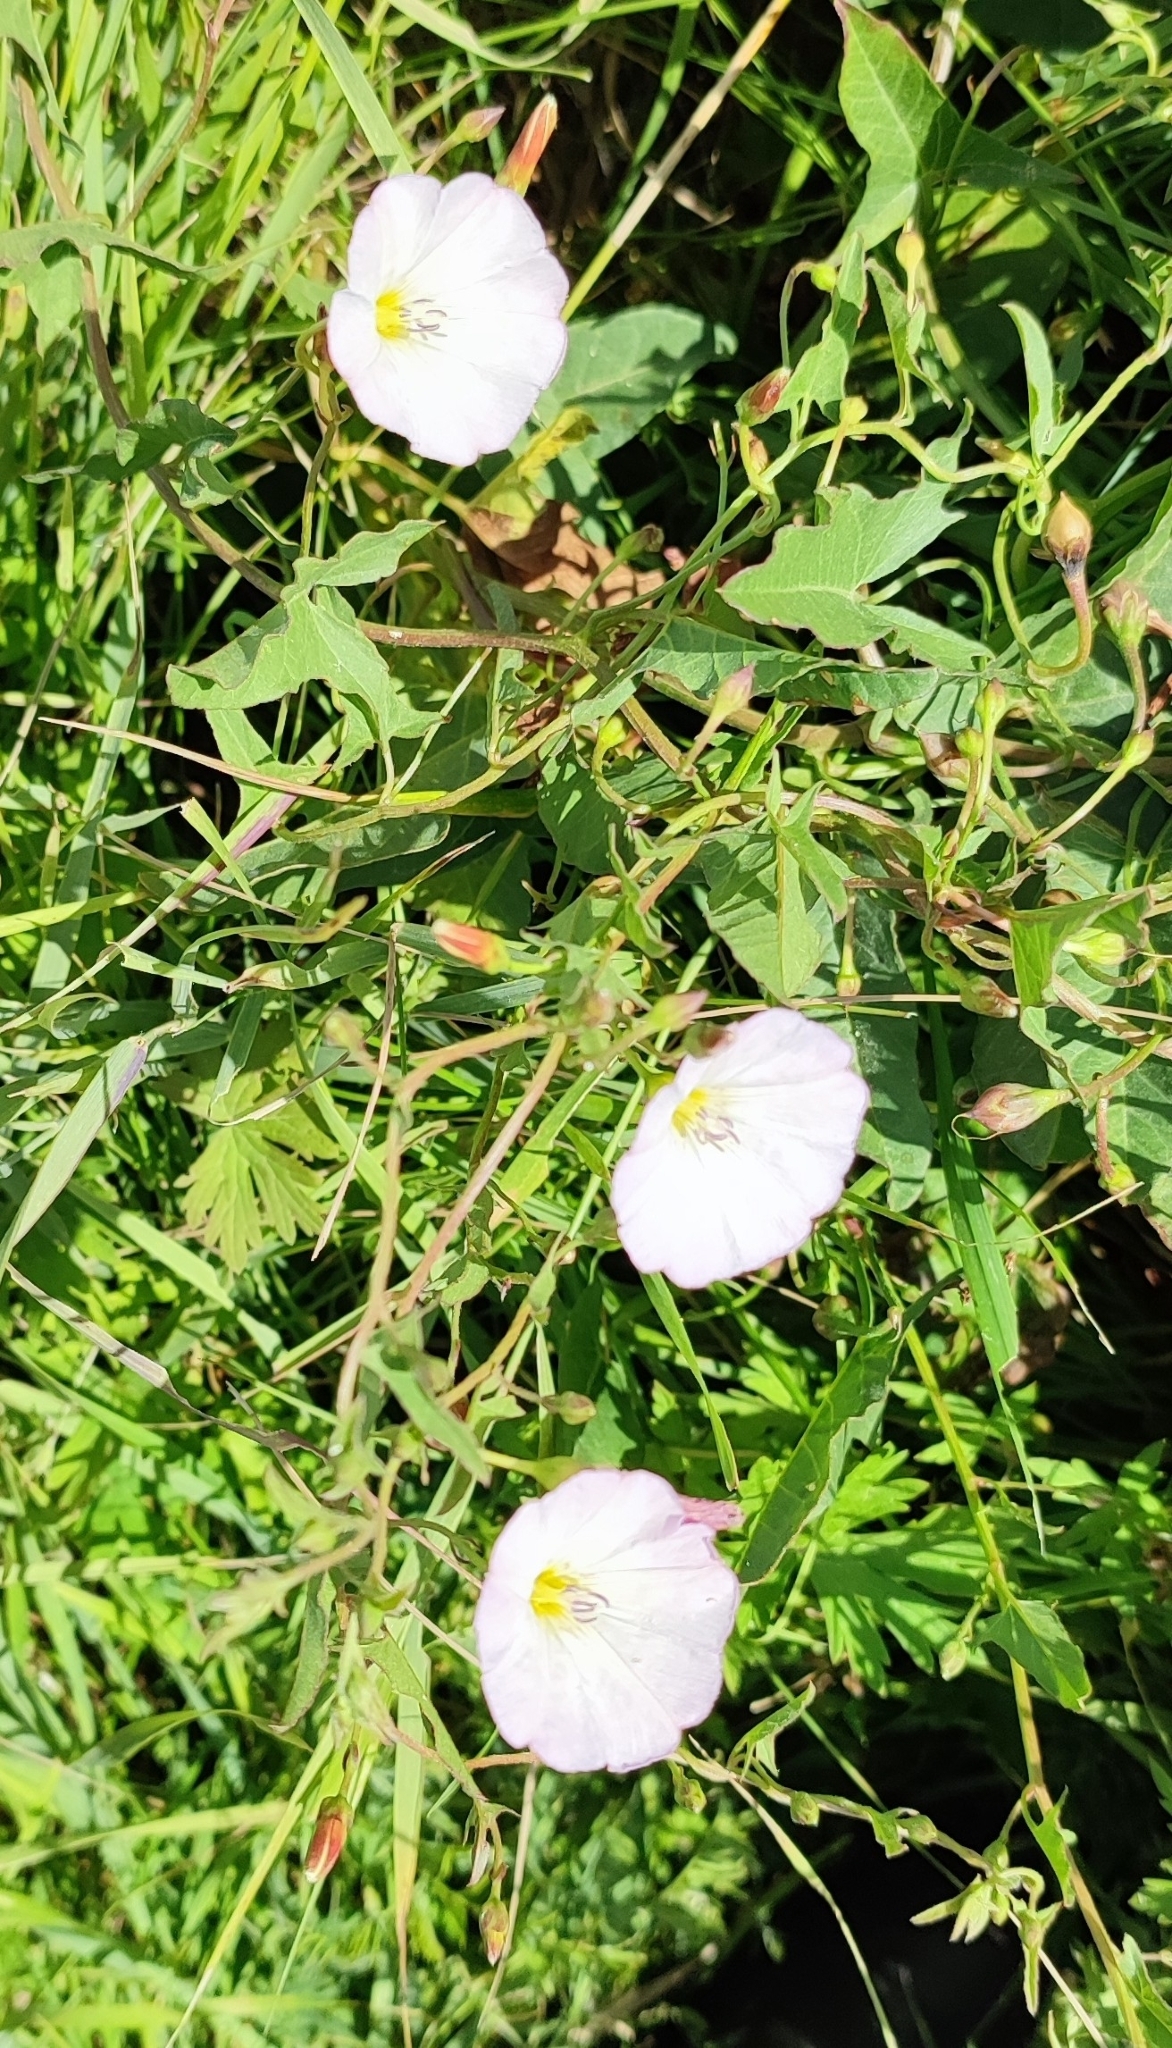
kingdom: Plantae
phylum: Tracheophyta
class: Magnoliopsida
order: Solanales
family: Convolvulaceae
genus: Convolvulus
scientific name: Convolvulus arvensis
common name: Field bindweed
